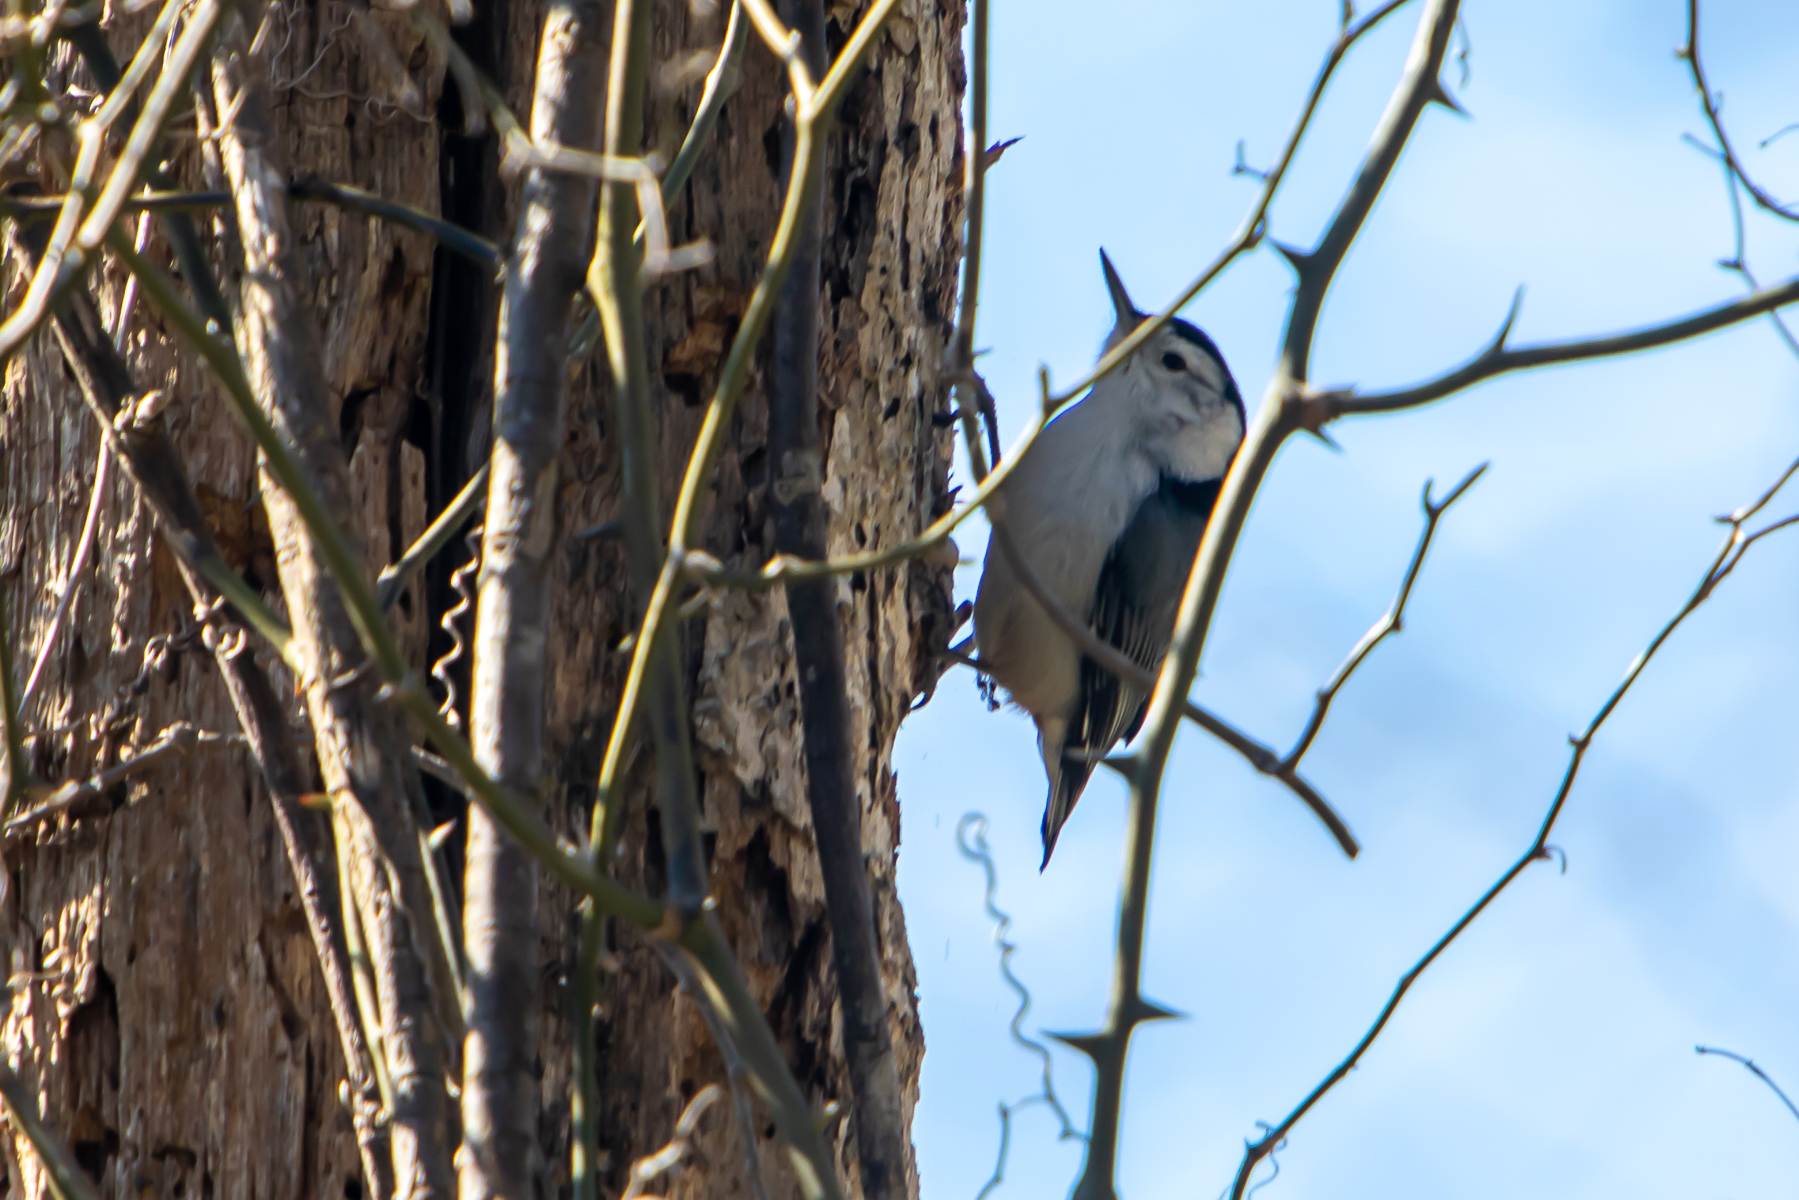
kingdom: Animalia
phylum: Chordata
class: Aves
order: Passeriformes
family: Sittidae
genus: Sitta
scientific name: Sitta carolinensis
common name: White-breasted nuthatch
